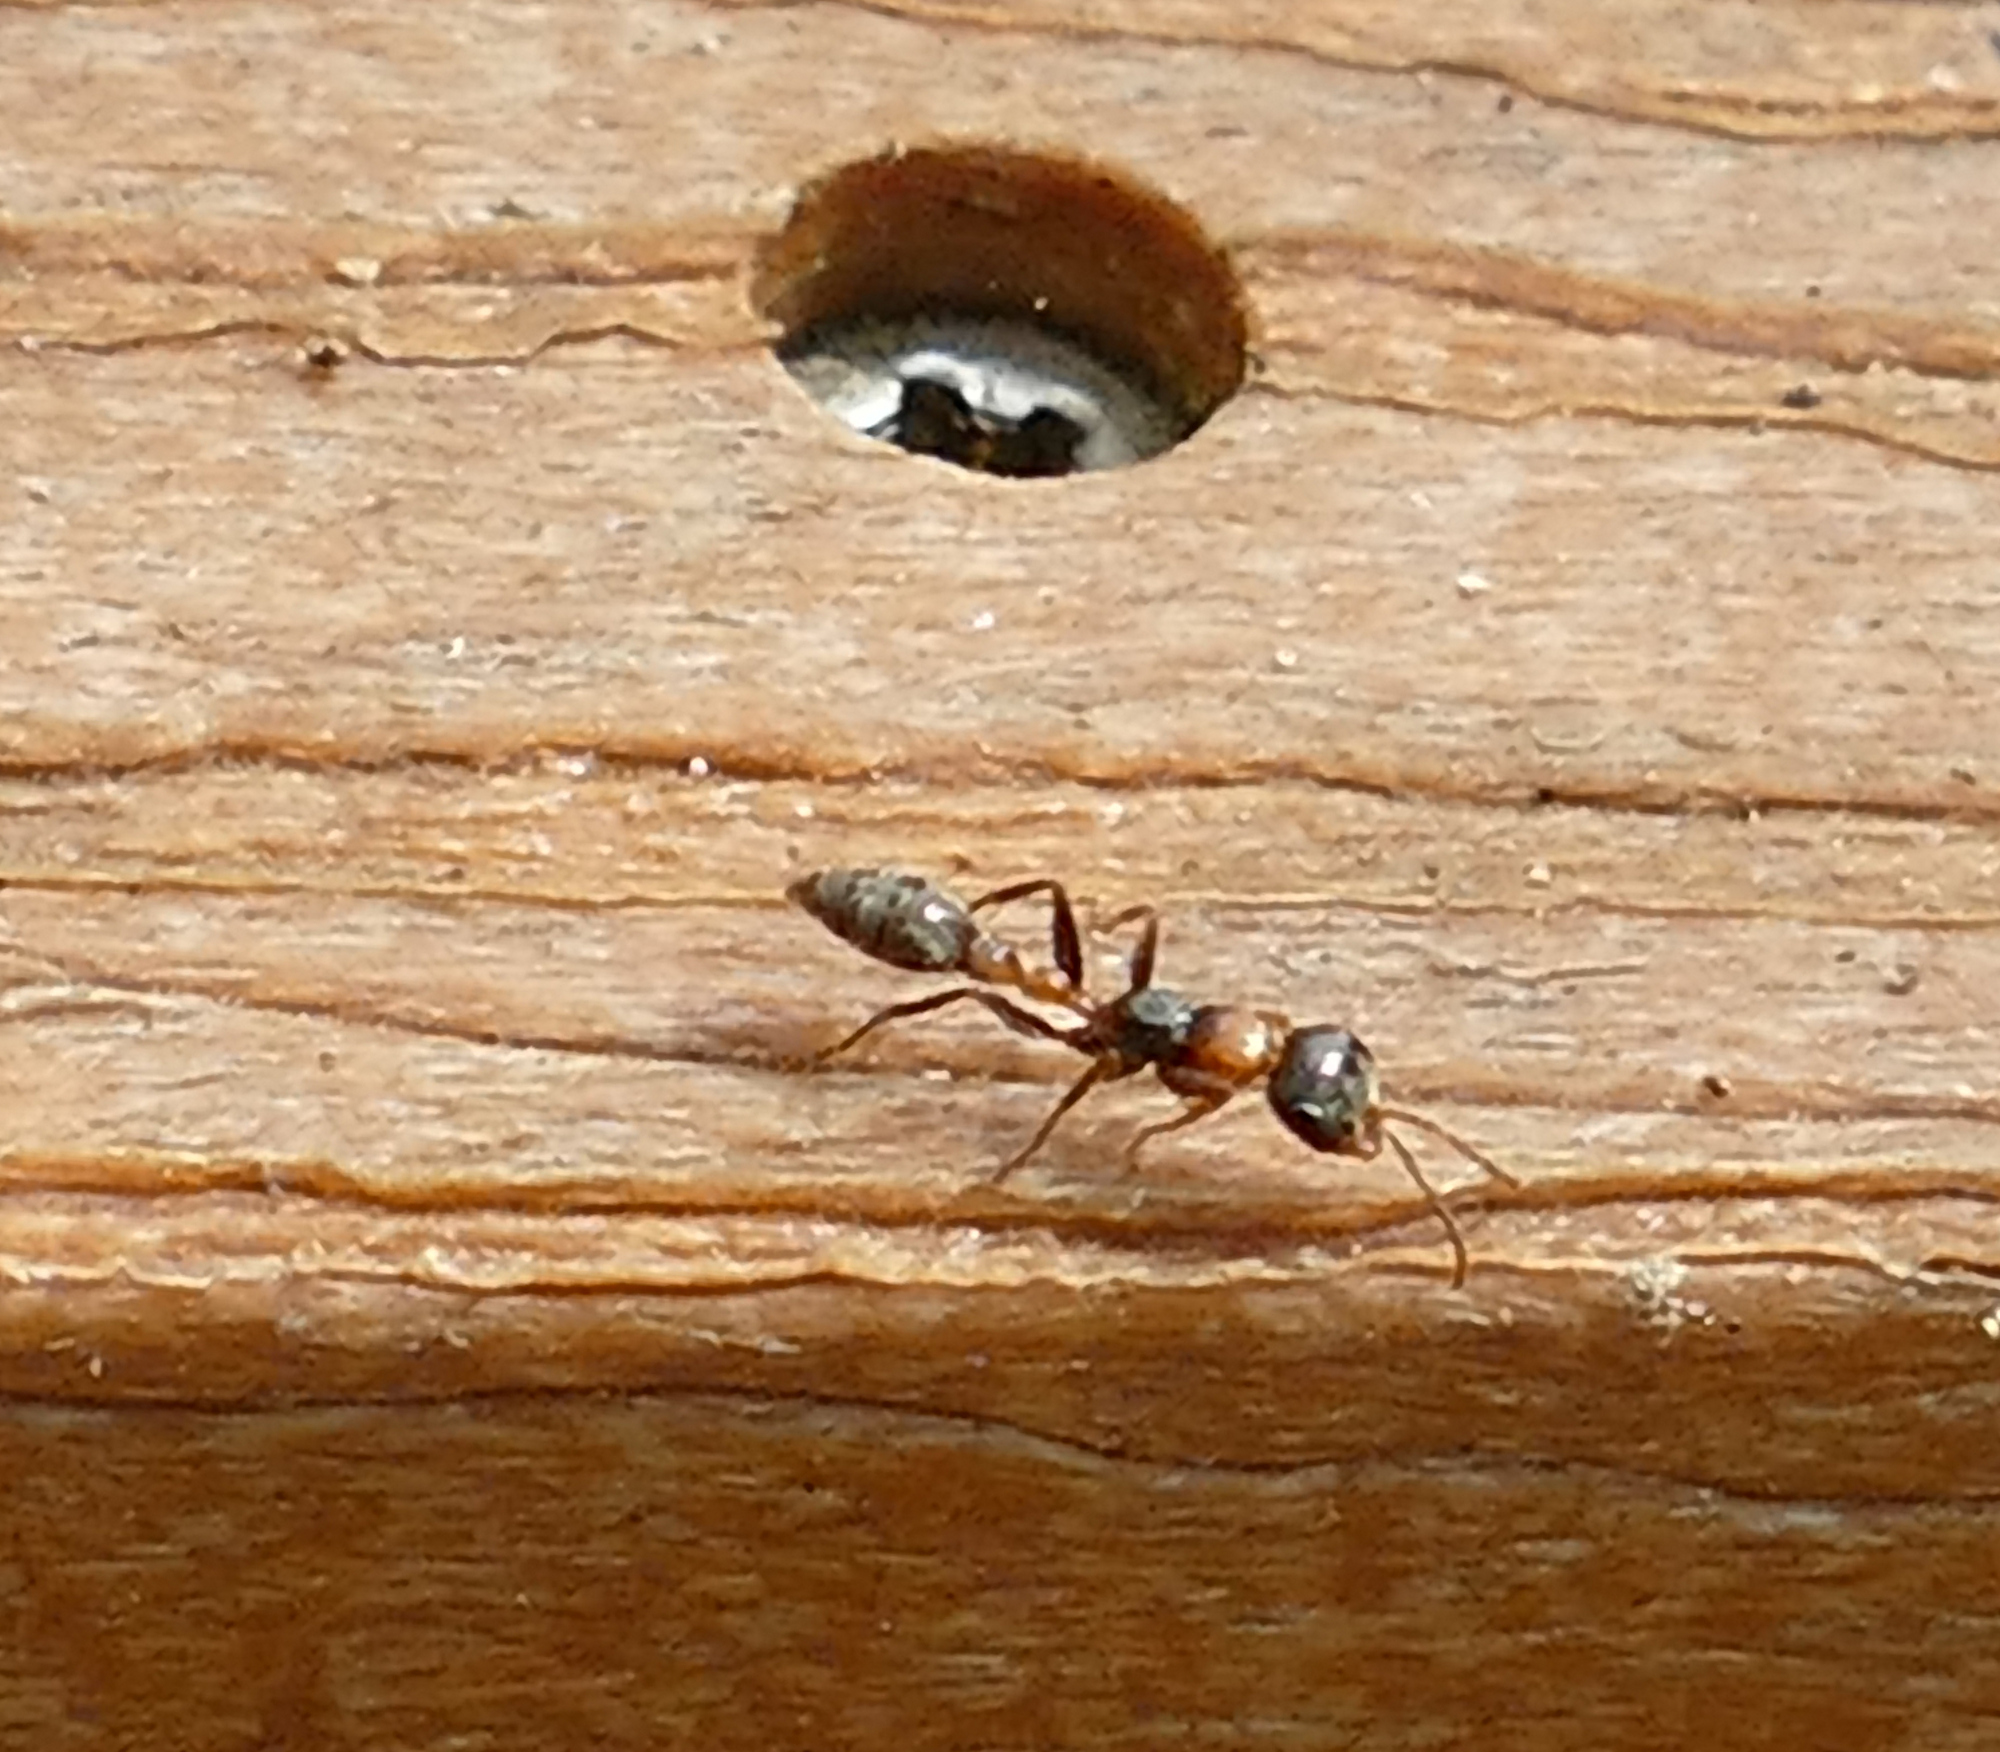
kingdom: Animalia
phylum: Arthropoda
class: Insecta
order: Hymenoptera
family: Formicidae
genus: Pseudomyrmex
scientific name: Pseudomyrmex gracilis
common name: Graceful twig ant
